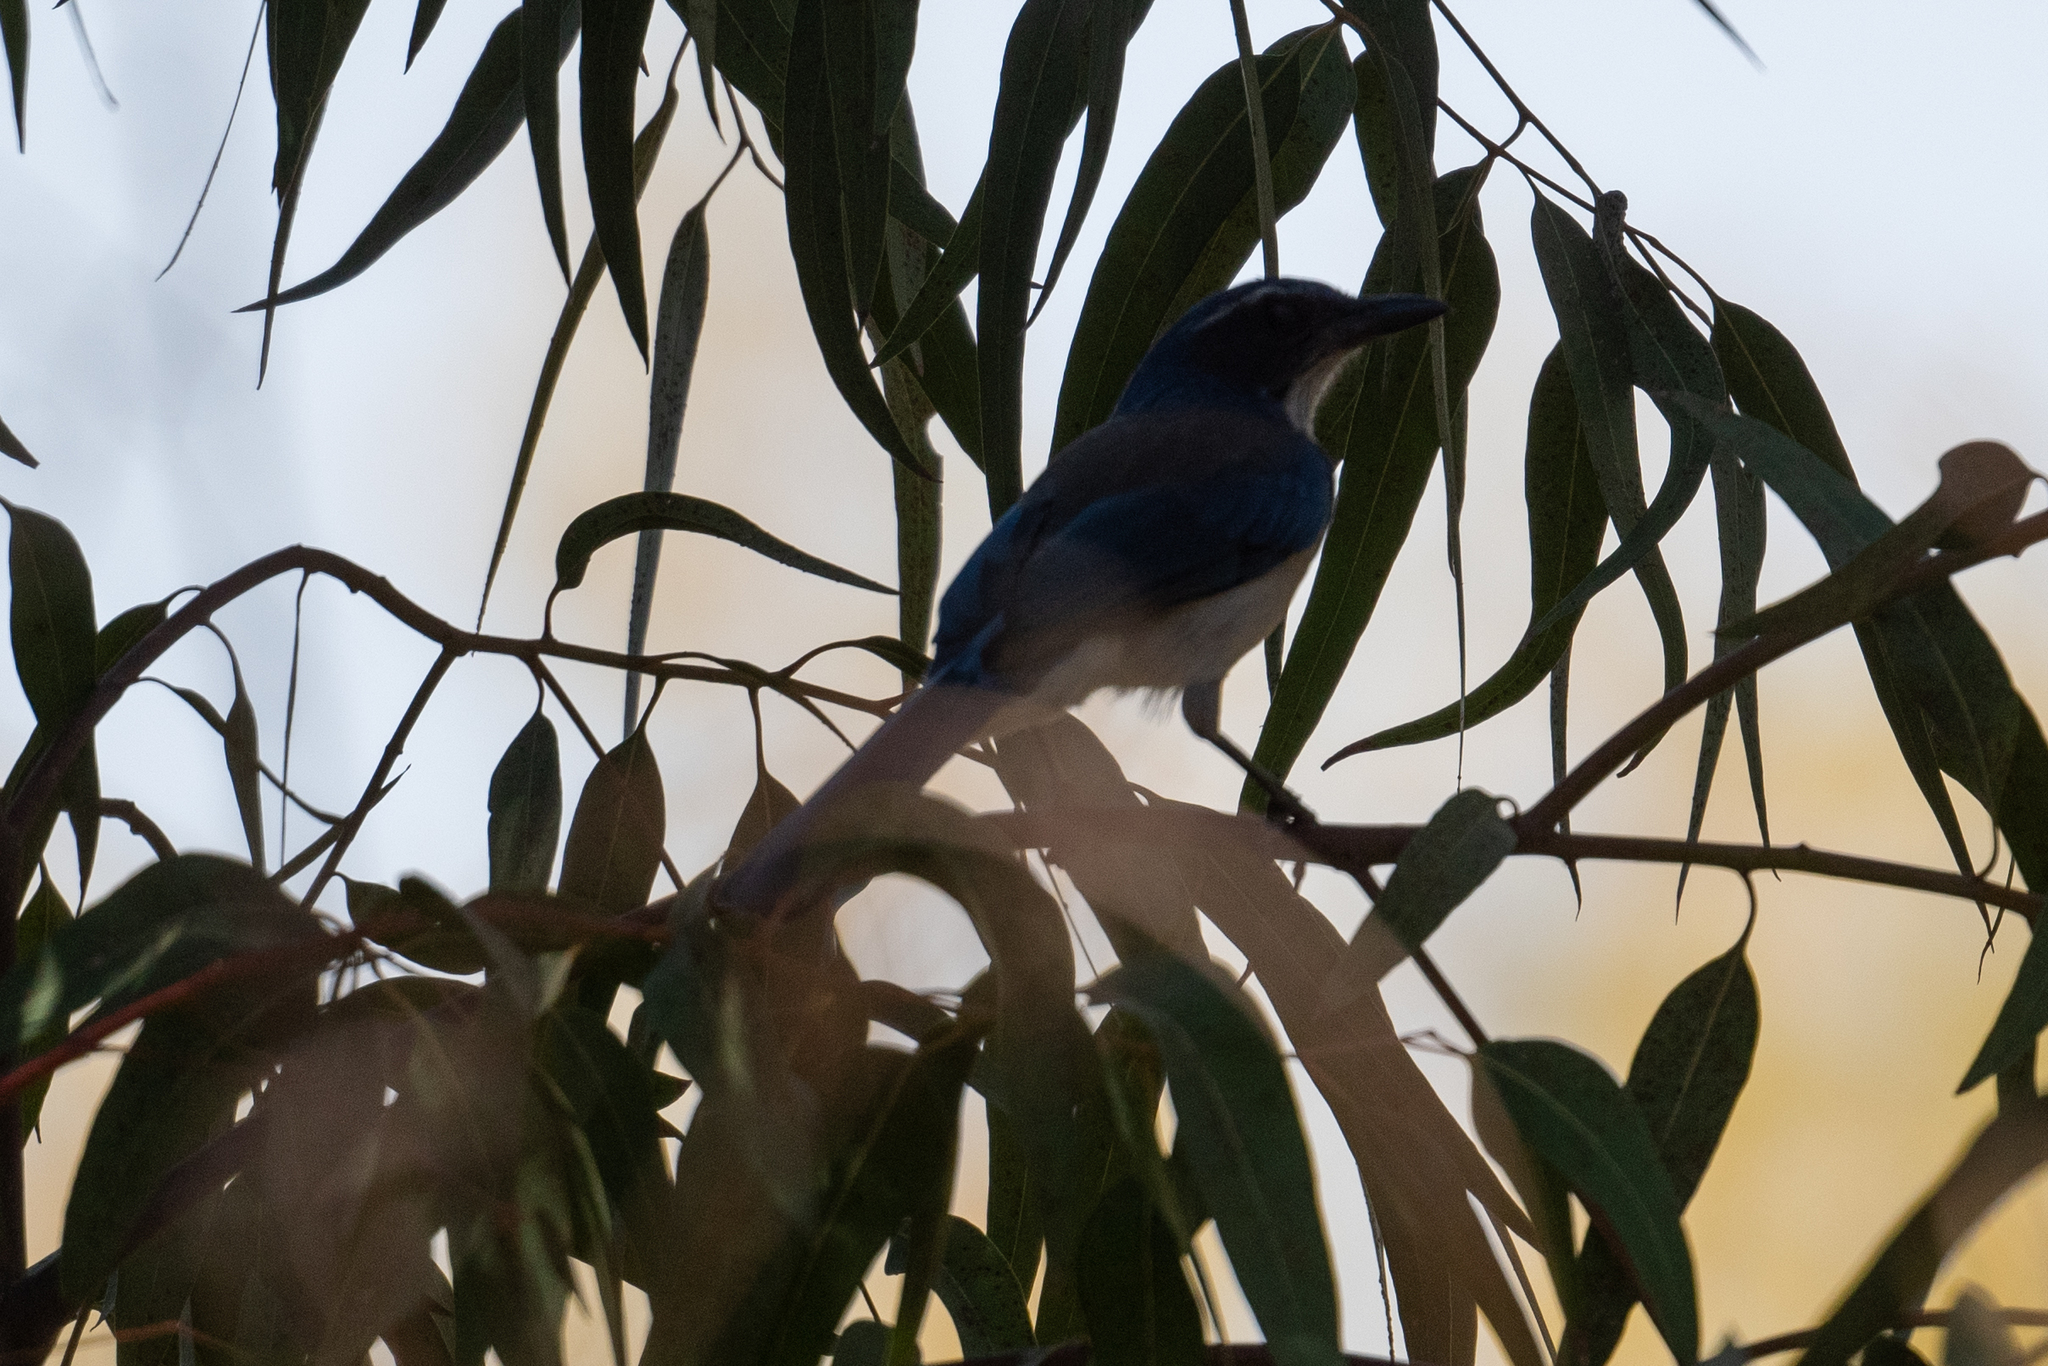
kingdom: Animalia
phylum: Chordata
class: Aves
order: Passeriformes
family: Corvidae
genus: Aphelocoma
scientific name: Aphelocoma californica
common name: California scrub-jay
